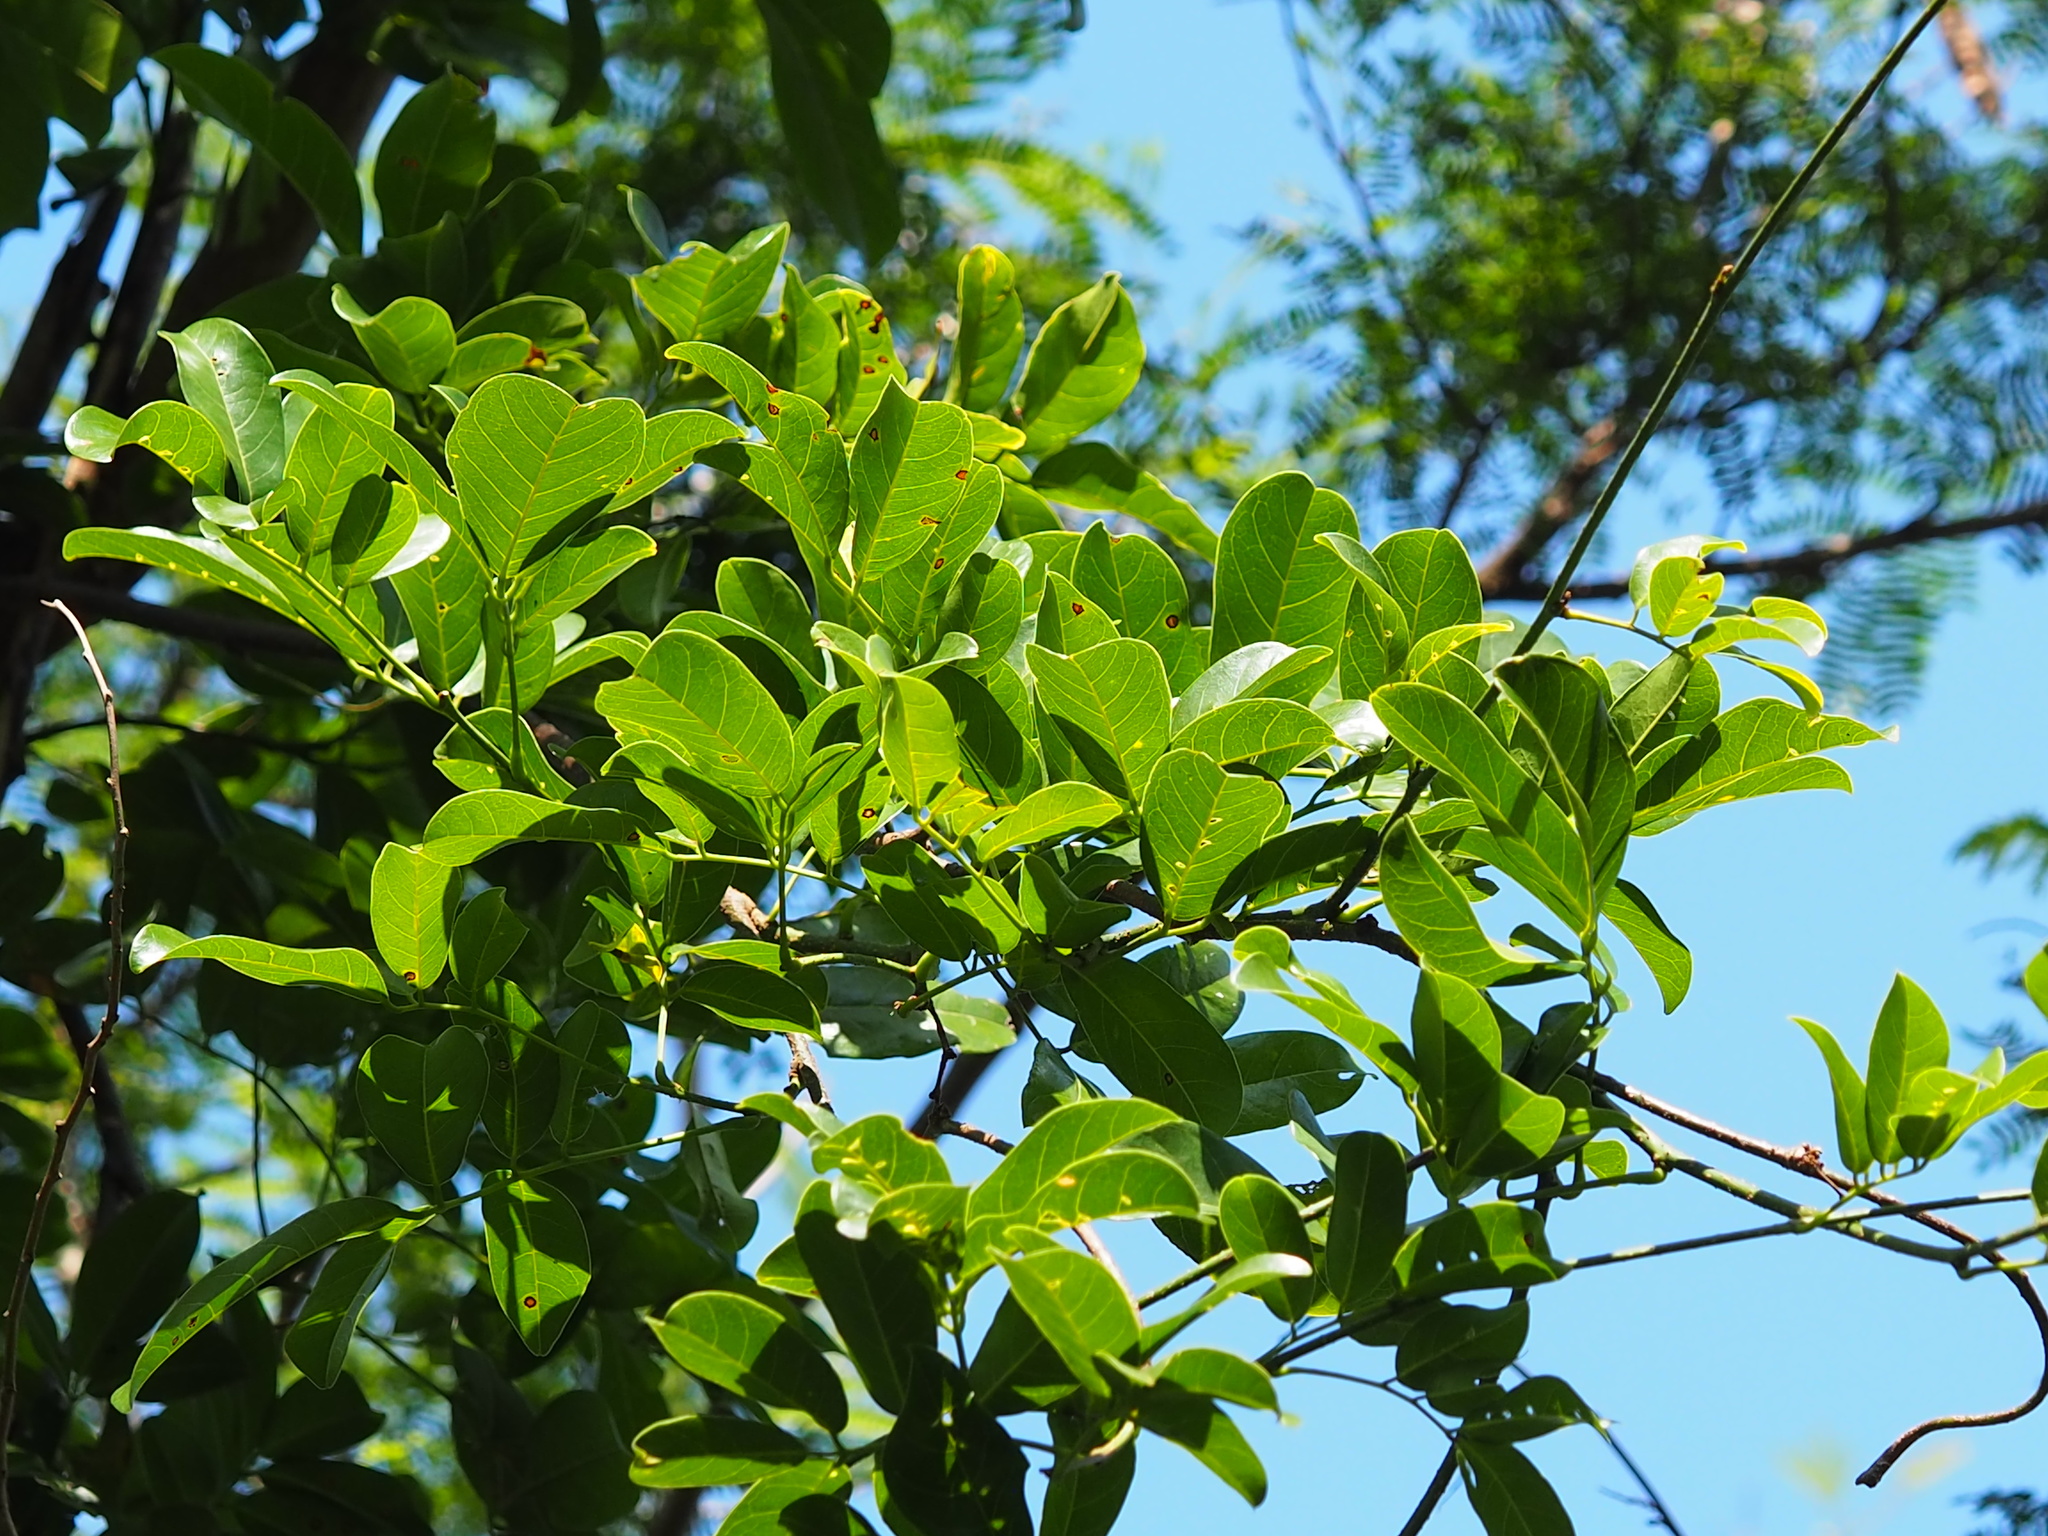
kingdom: Plantae
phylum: Tracheophyta
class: Magnoliopsida
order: Fabales
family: Fabaceae
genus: Wisteriopsis
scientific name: Wisteriopsis reticulata
